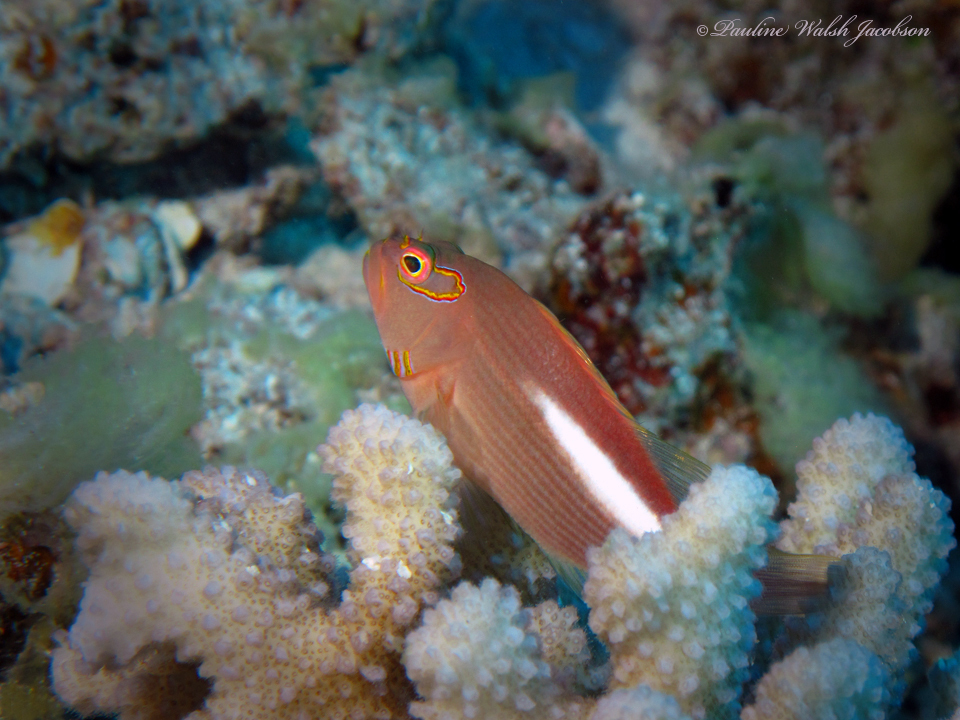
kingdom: Animalia
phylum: Chordata
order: Perciformes
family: Cirrhitidae
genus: Paracirrhites
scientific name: Paracirrhites arcatus
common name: Arc-eye hawkfish
